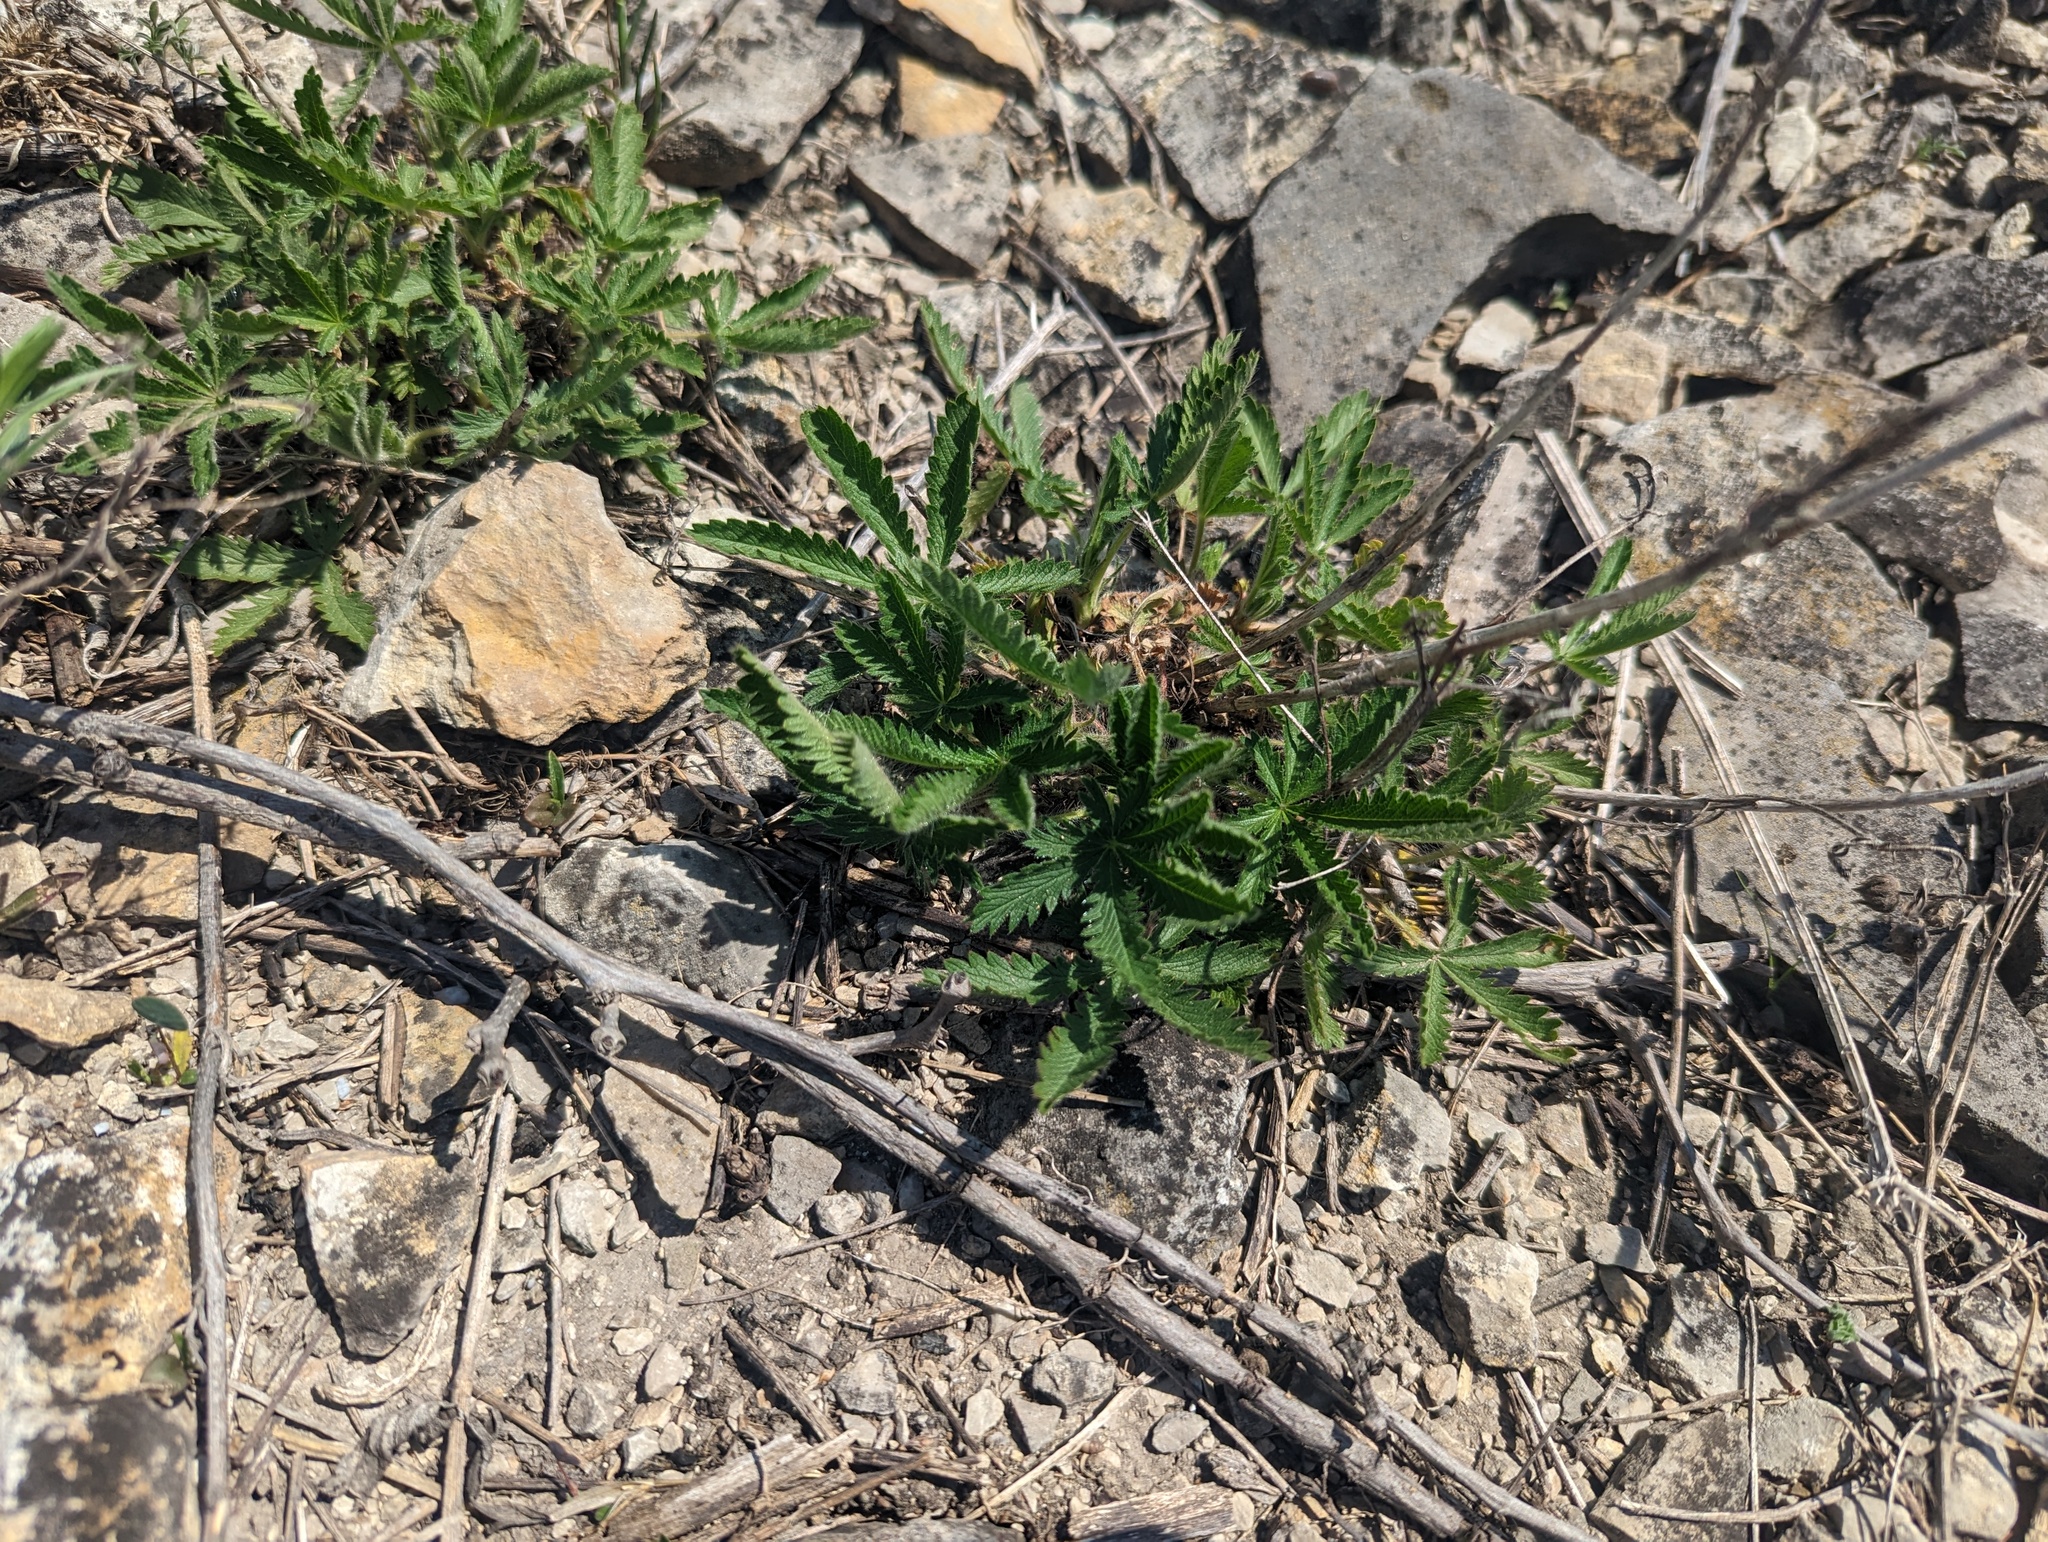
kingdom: Plantae
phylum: Tracheophyta
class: Magnoliopsida
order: Rosales
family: Rosaceae
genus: Potentilla
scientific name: Potentilla recta
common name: Sulphur cinquefoil
